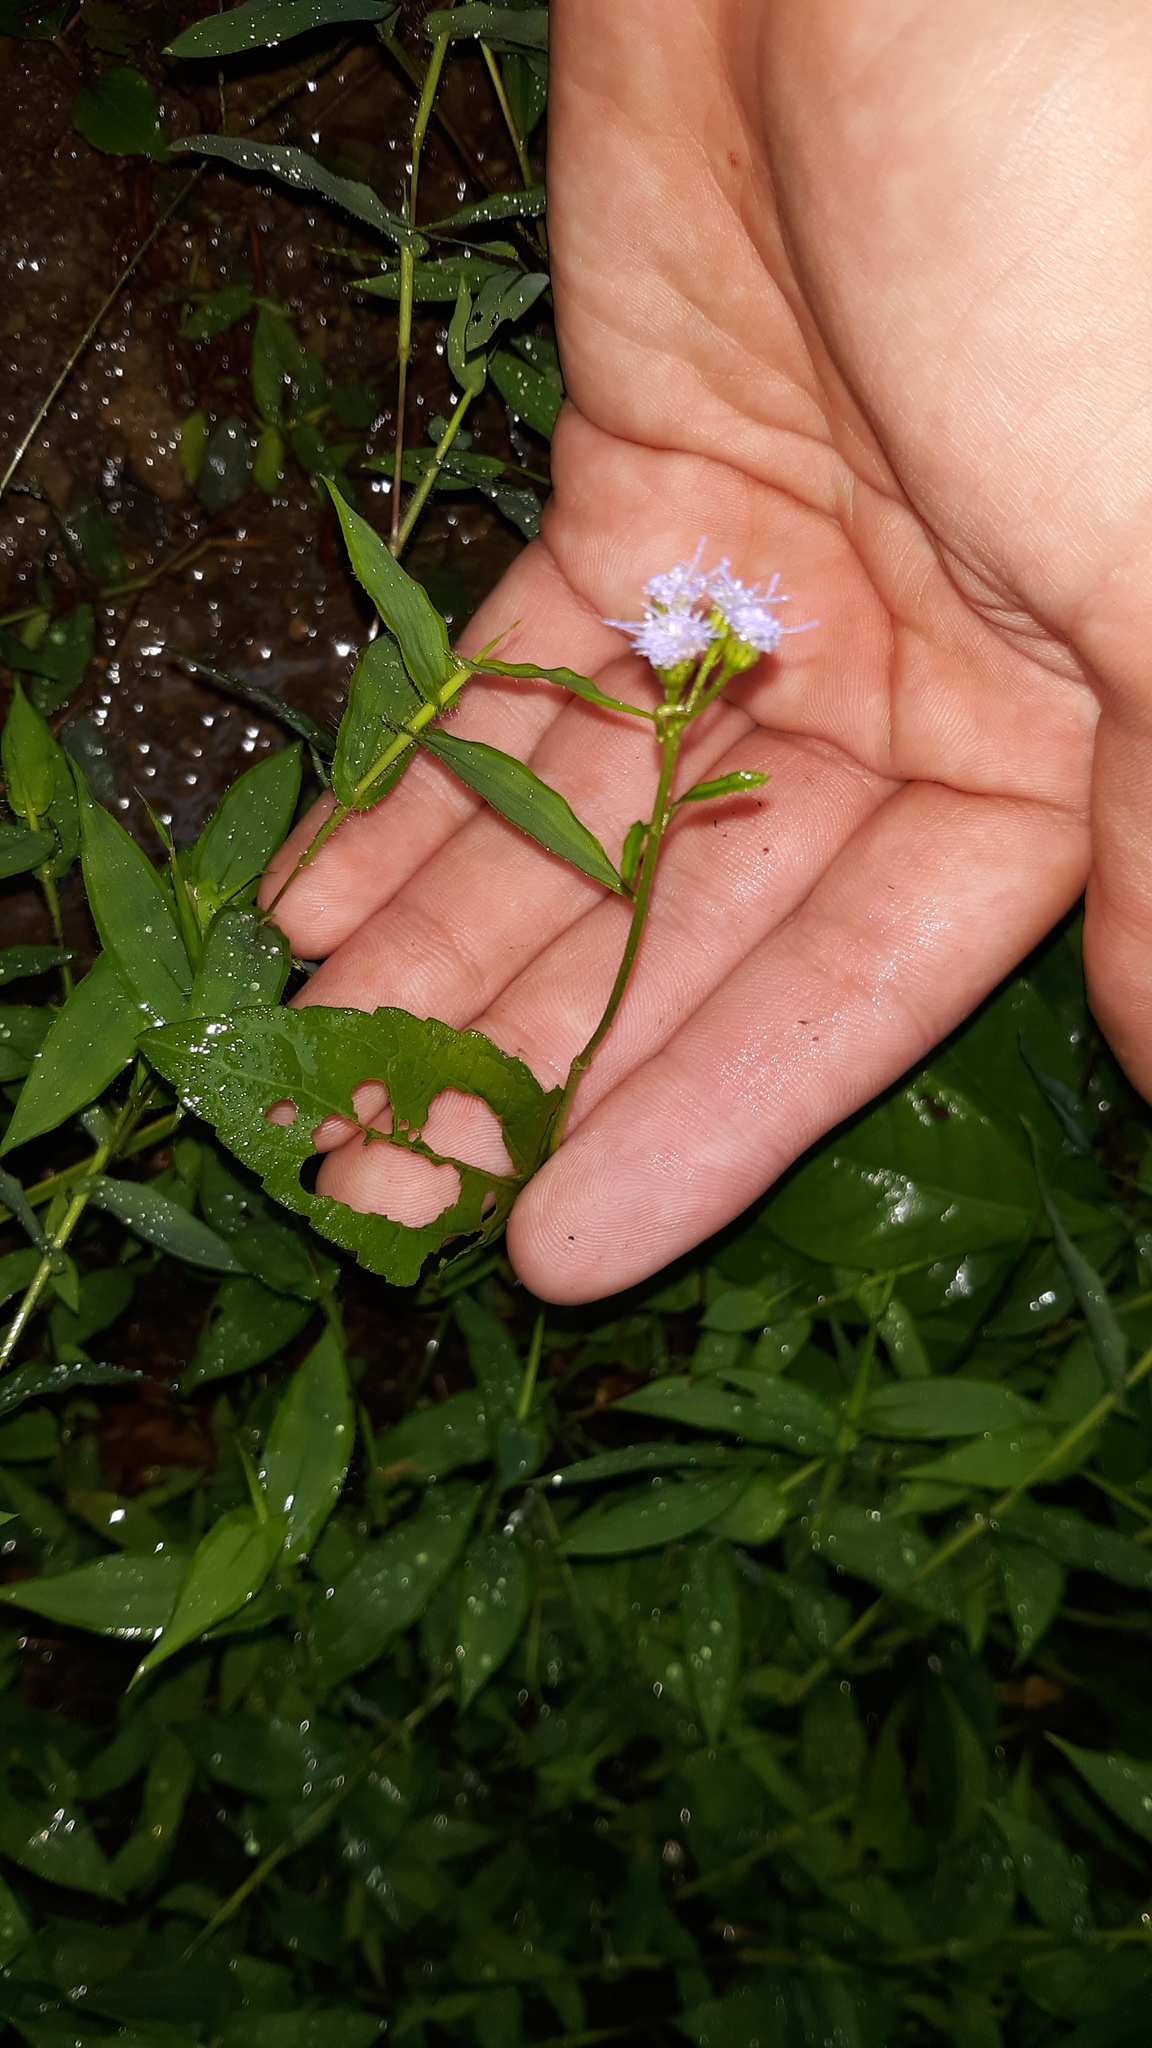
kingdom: Plantae
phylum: Tracheophyta
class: Magnoliopsida
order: Asterales
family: Asteraceae
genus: Conoclinium
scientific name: Conoclinium coelestinum
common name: Blue mistflower
